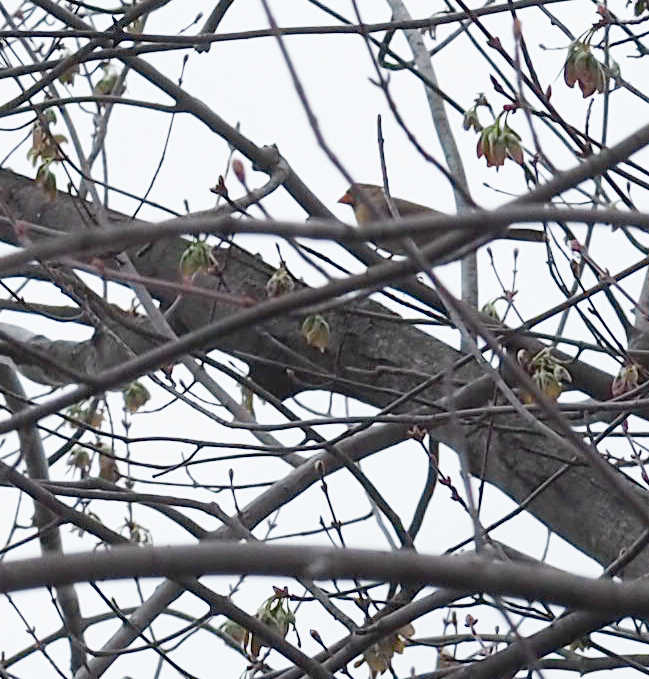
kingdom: Animalia
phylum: Chordata
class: Aves
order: Passeriformes
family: Cardinalidae
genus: Cardinalis
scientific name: Cardinalis cardinalis
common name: Northern cardinal
